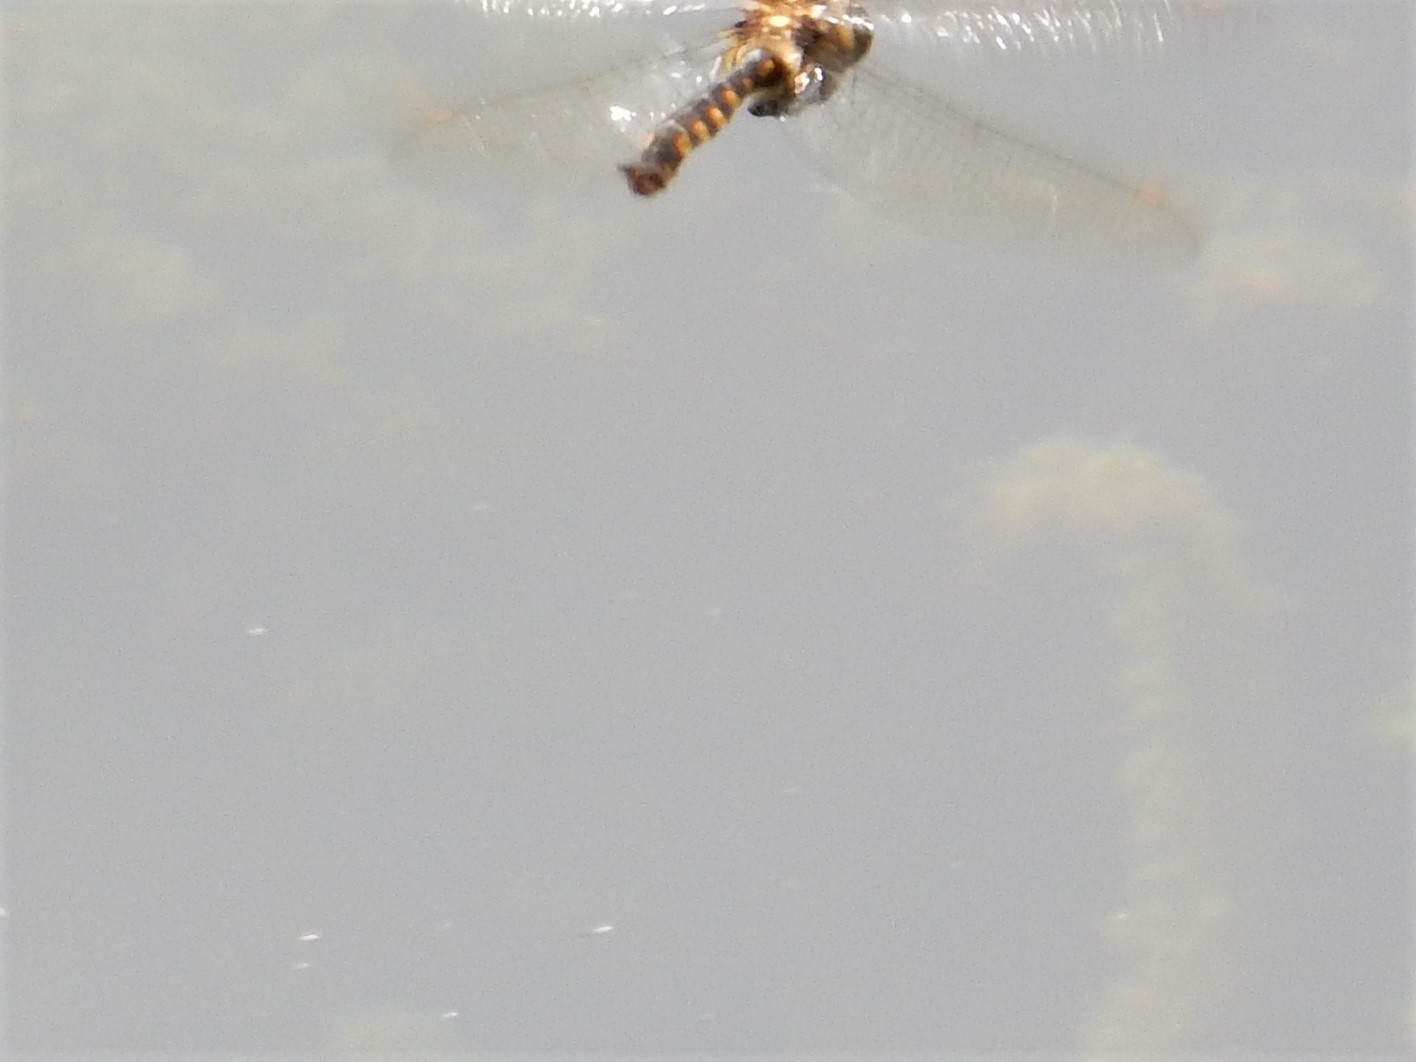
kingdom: Animalia
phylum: Arthropoda
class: Insecta
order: Odonata
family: Corduliidae
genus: Procordulia
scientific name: Procordulia grayi
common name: Yellow spotted dragonfly
